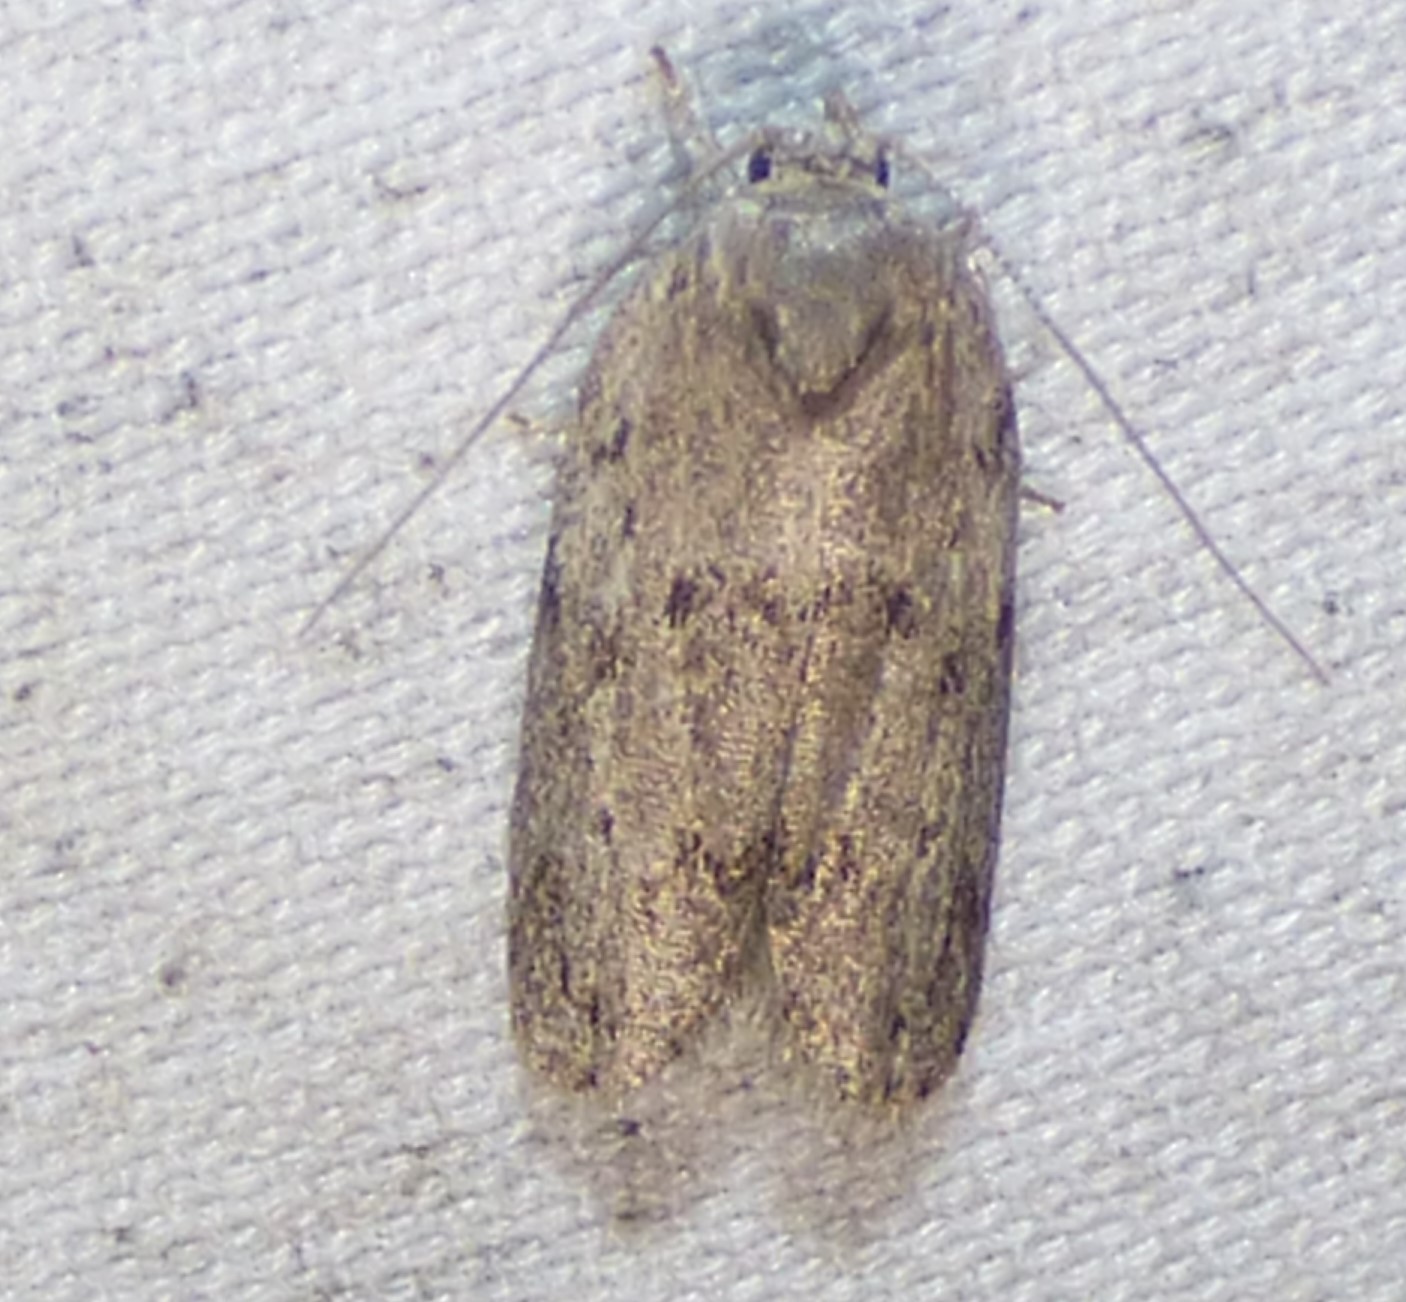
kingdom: Animalia
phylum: Arthropoda
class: Insecta
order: Lepidoptera
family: Depressariidae
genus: Antaeotricha
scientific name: Antaeotricha humilis
